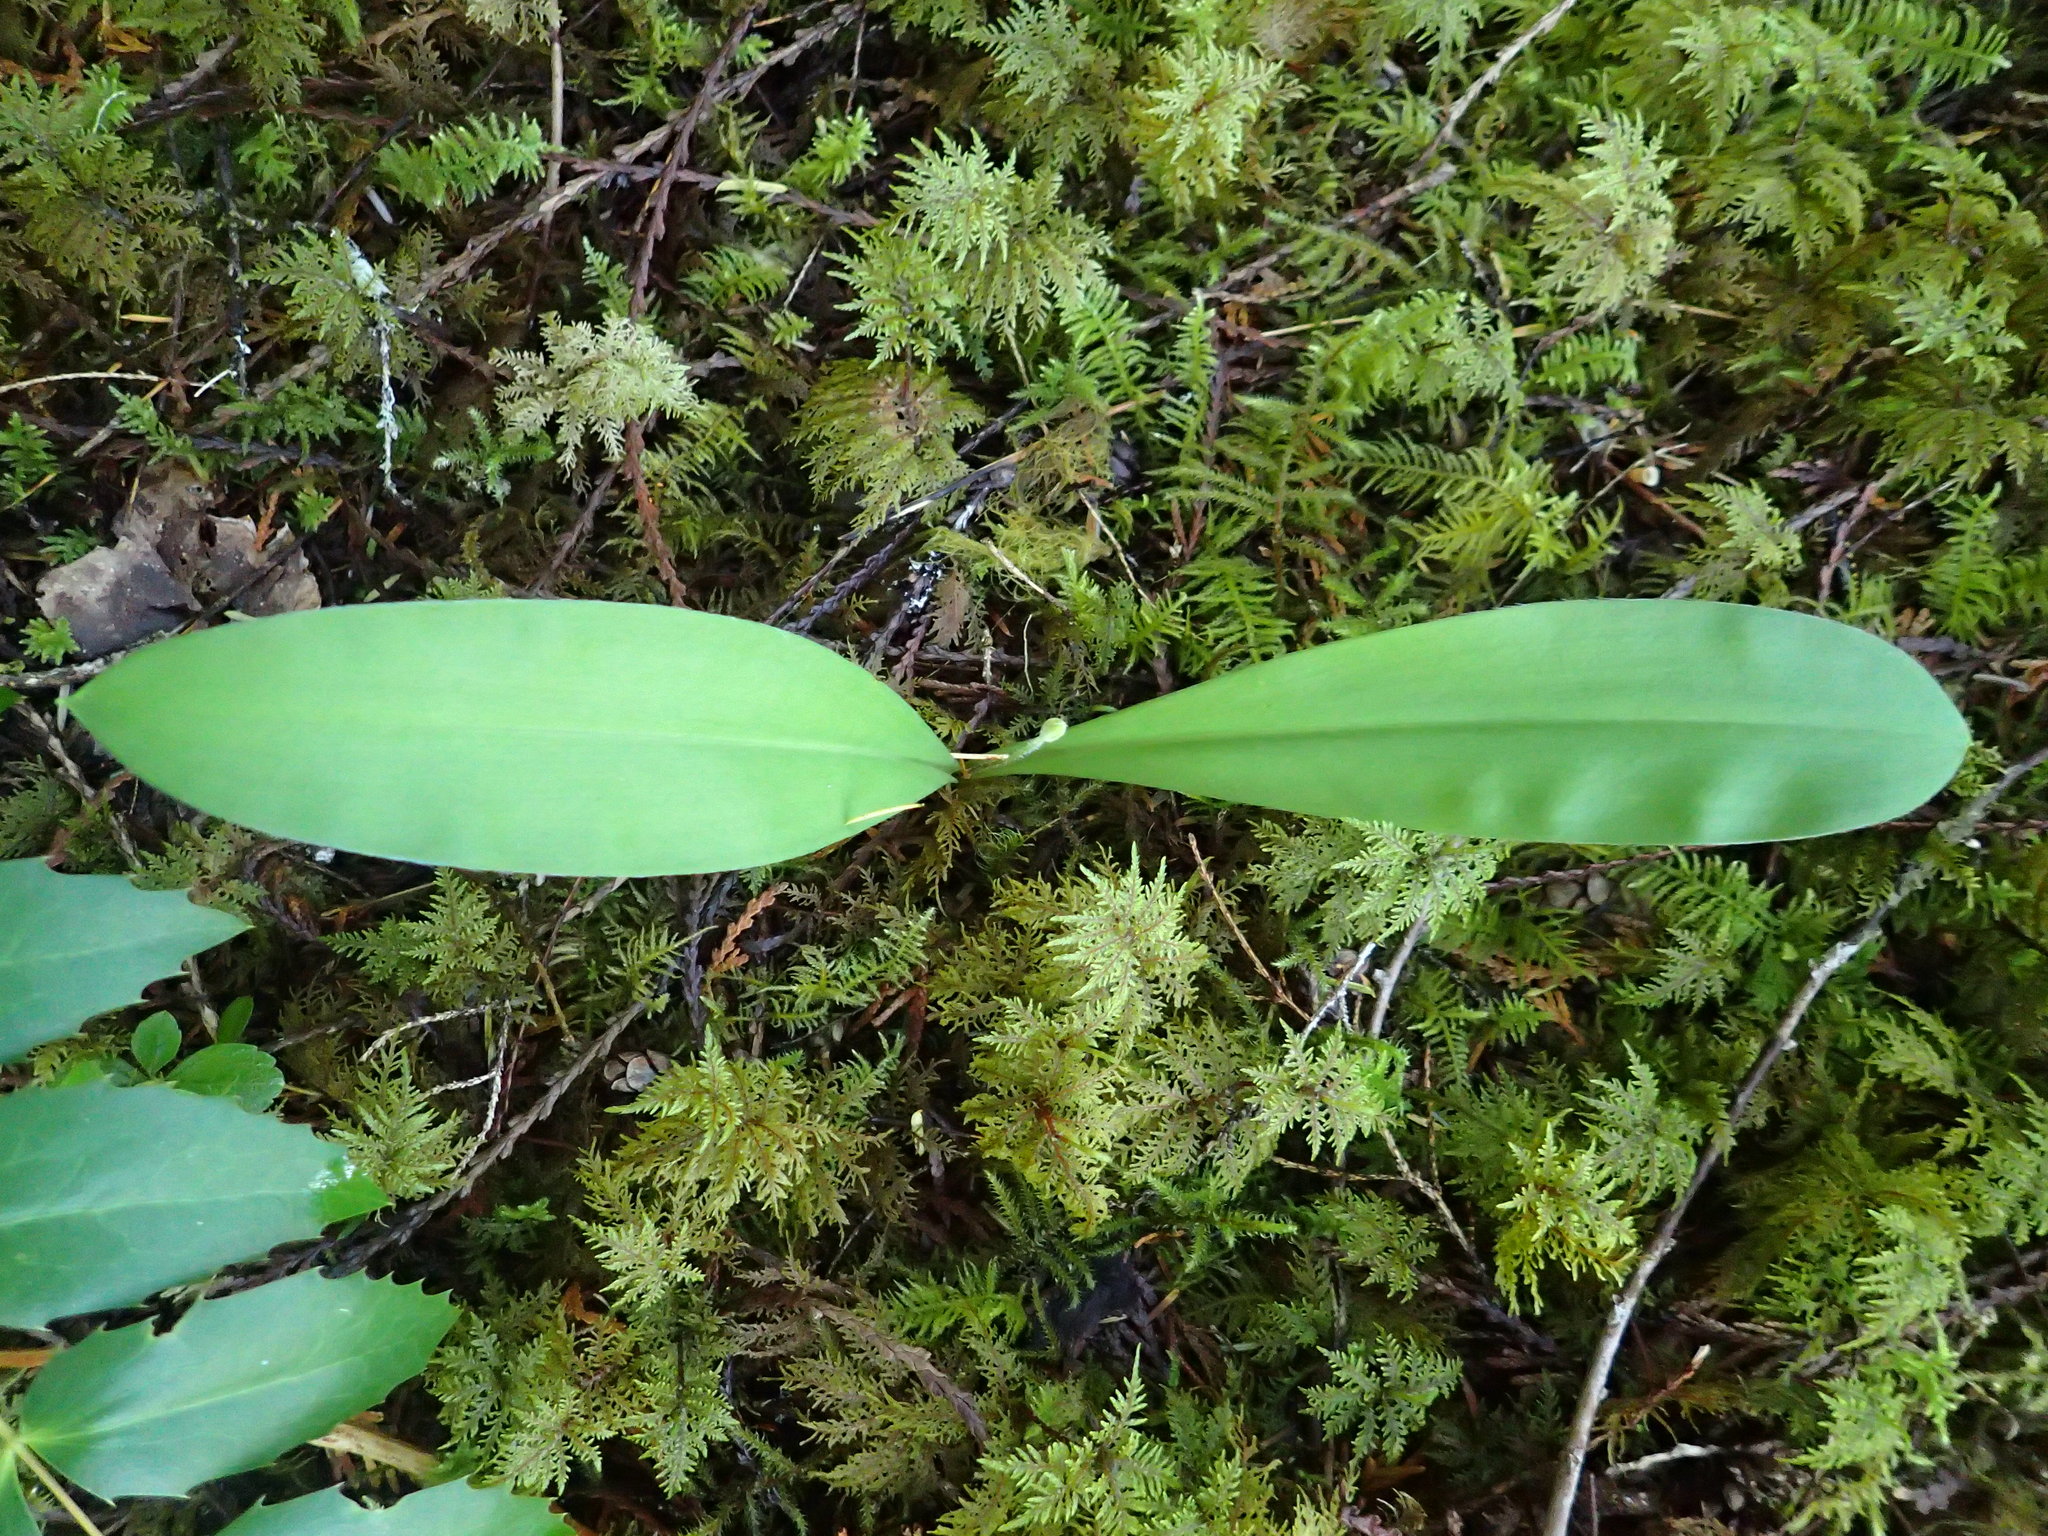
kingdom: Plantae
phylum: Tracheophyta
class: Liliopsida
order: Liliales
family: Liliaceae
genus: Clintonia
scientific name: Clintonia uniflora
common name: Queen's cup
